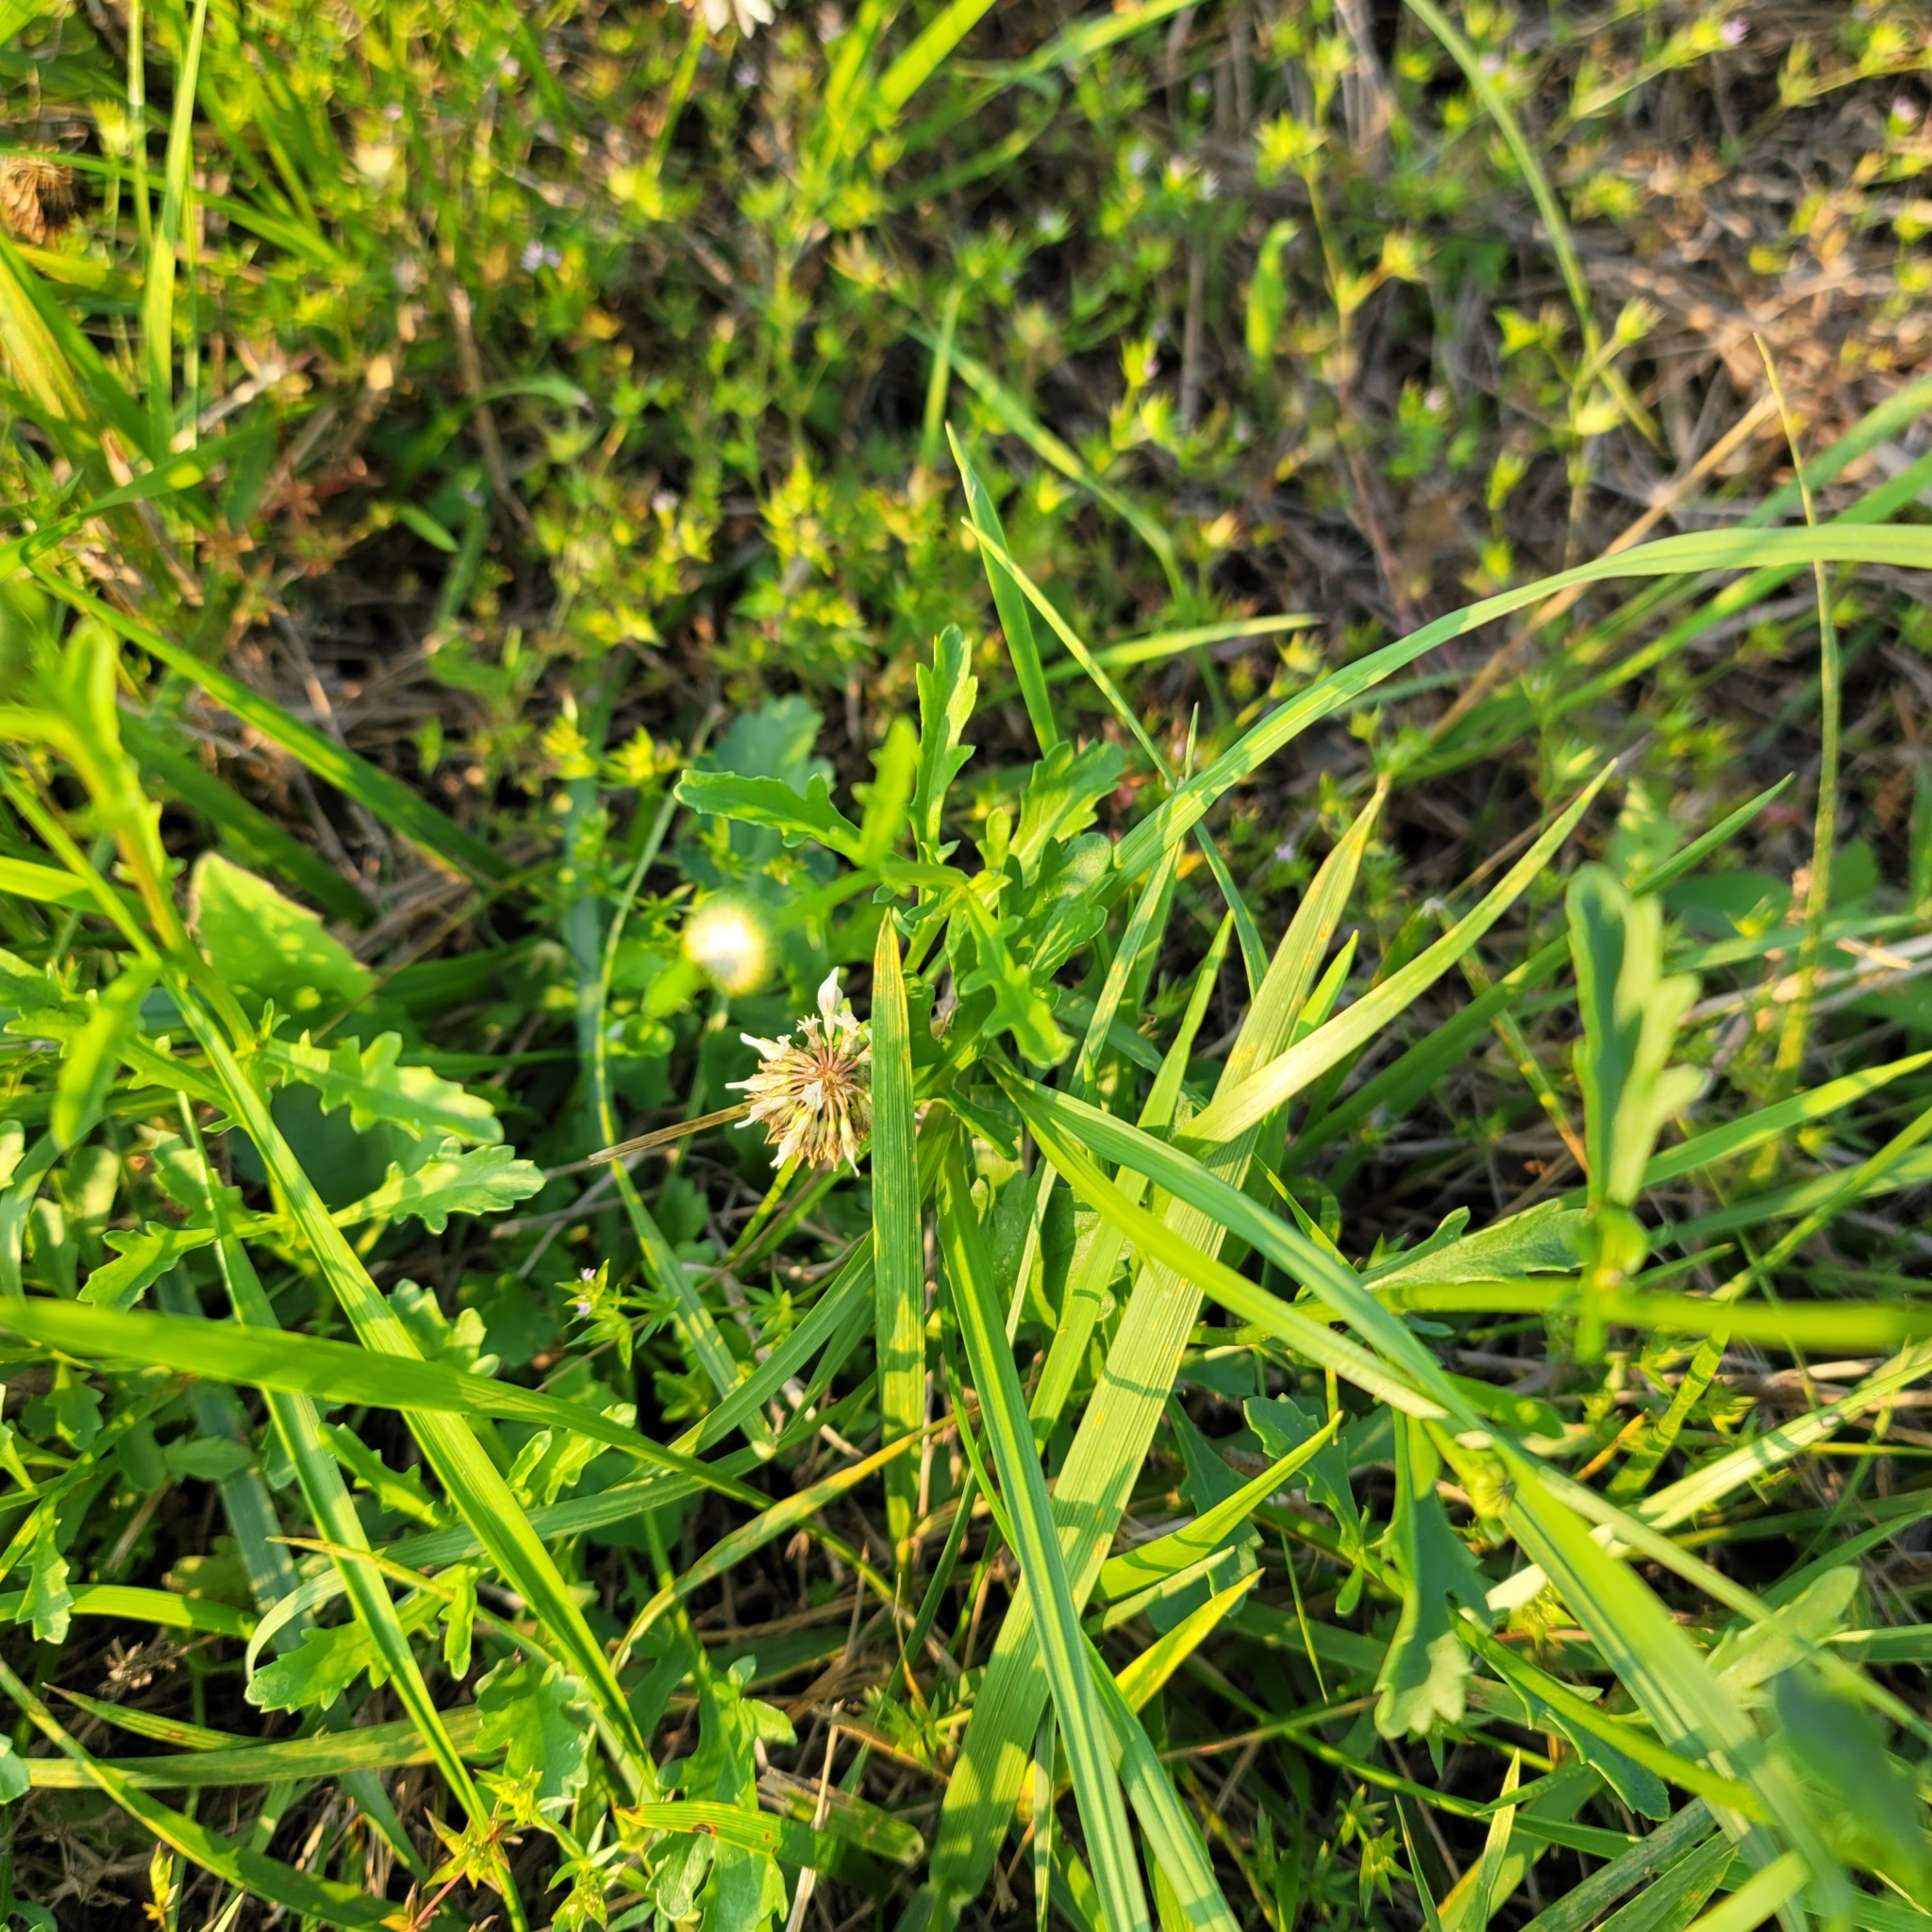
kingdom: Plantae
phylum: Tracheophyta
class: Magnoliopsida
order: Asterales
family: Asteraceae
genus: Leucanthemum
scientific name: Leucanthemum vulgare
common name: Oxeye daisy
